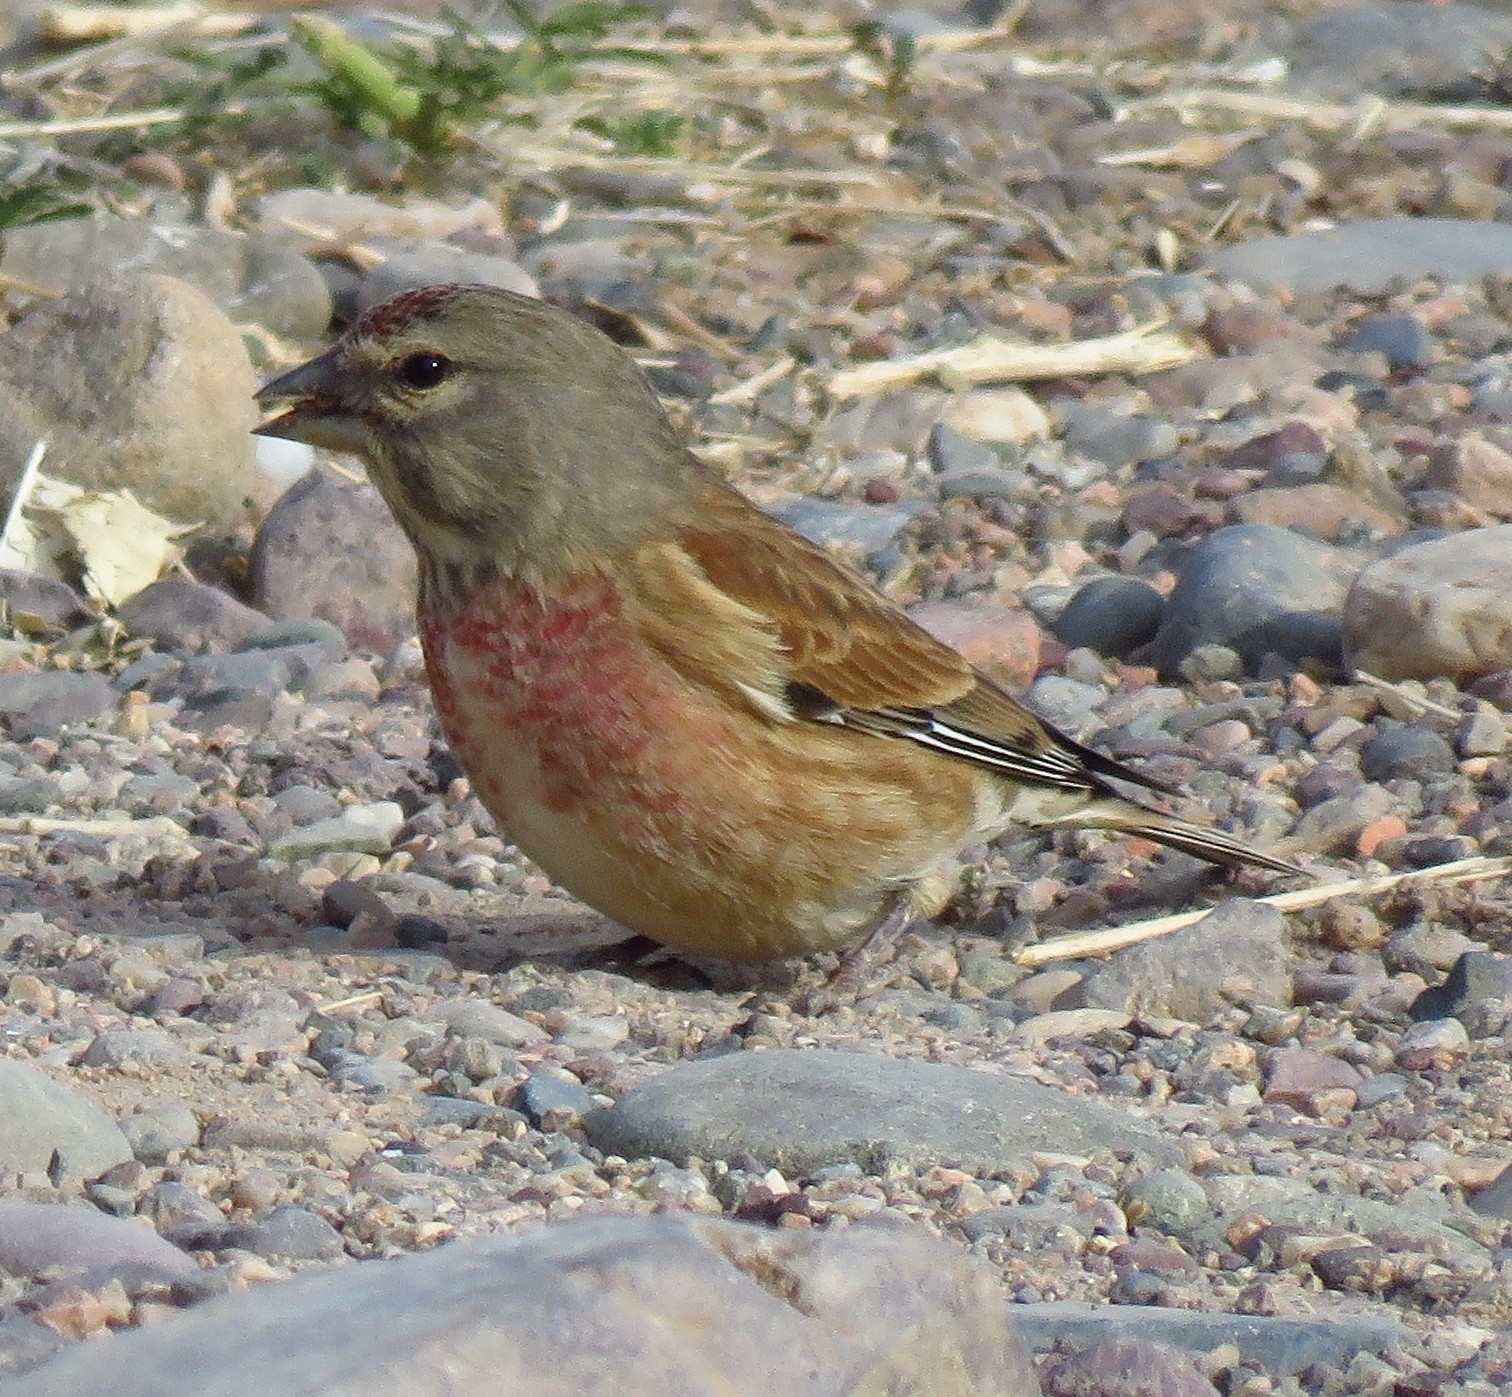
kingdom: Animalia
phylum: Chordata
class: Aves
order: Passeriformes
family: Fringillidae
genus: Linaria
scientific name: Linaria cannabina
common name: Common linnet
